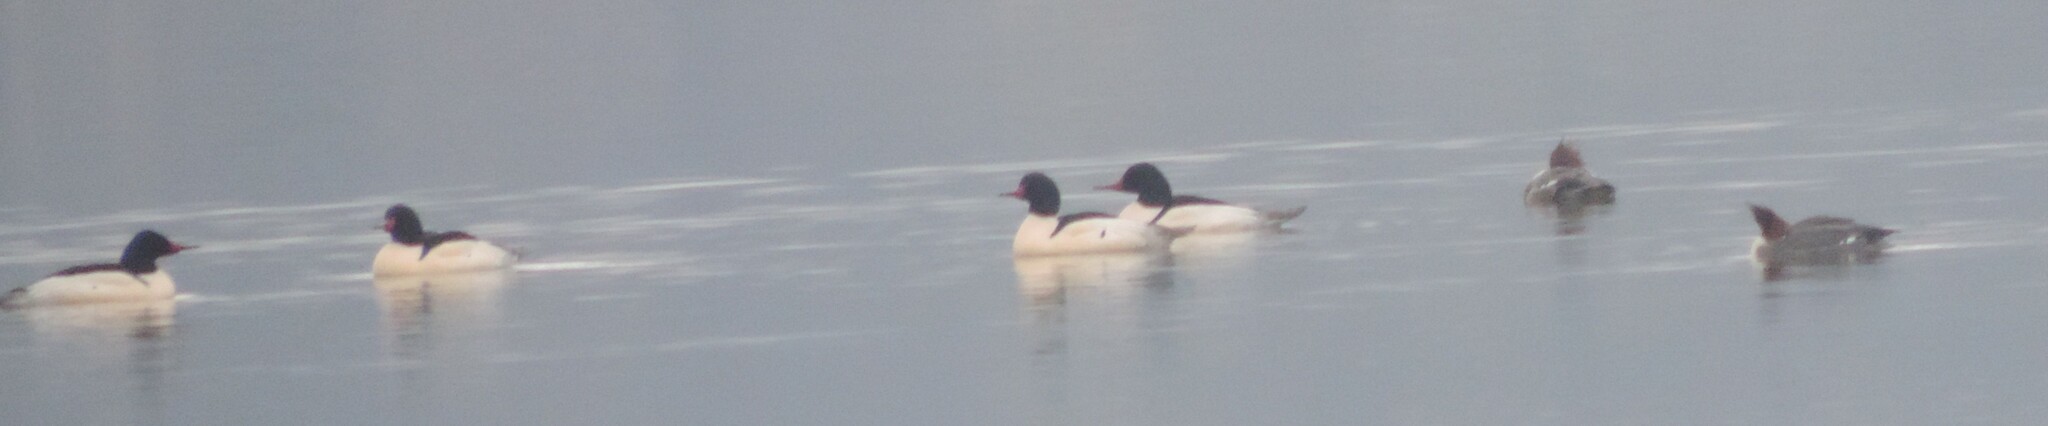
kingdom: Animalia
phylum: Chordata
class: Aves
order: Anseriformes
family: Anatidae
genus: Mergus
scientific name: Mergus merganser
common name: Common merganser
